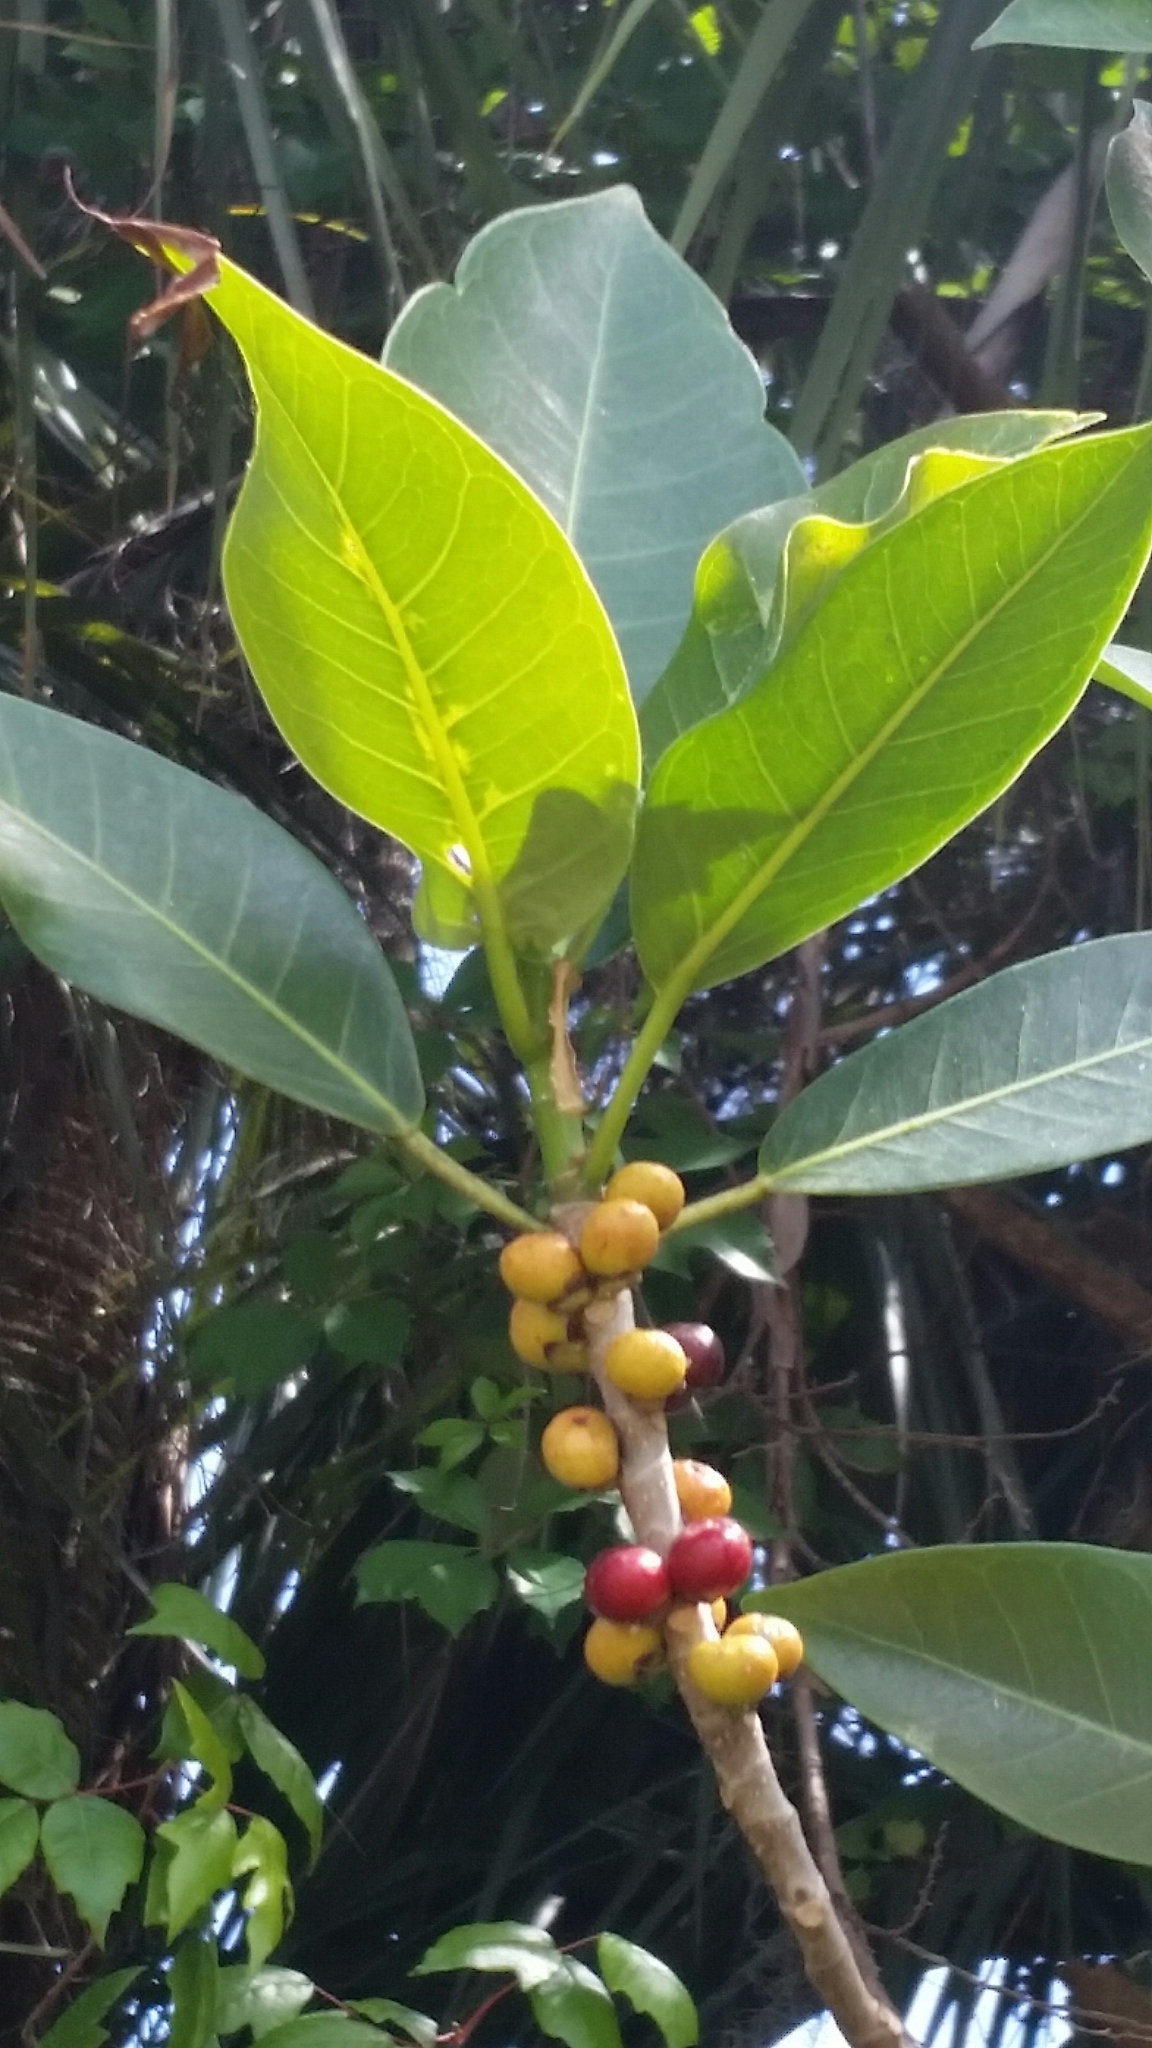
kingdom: Plantae
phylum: Tracheophyta
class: Magnoliopsida
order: Rosales
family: Moraceae
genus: Ficus
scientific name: Ficus aurea
